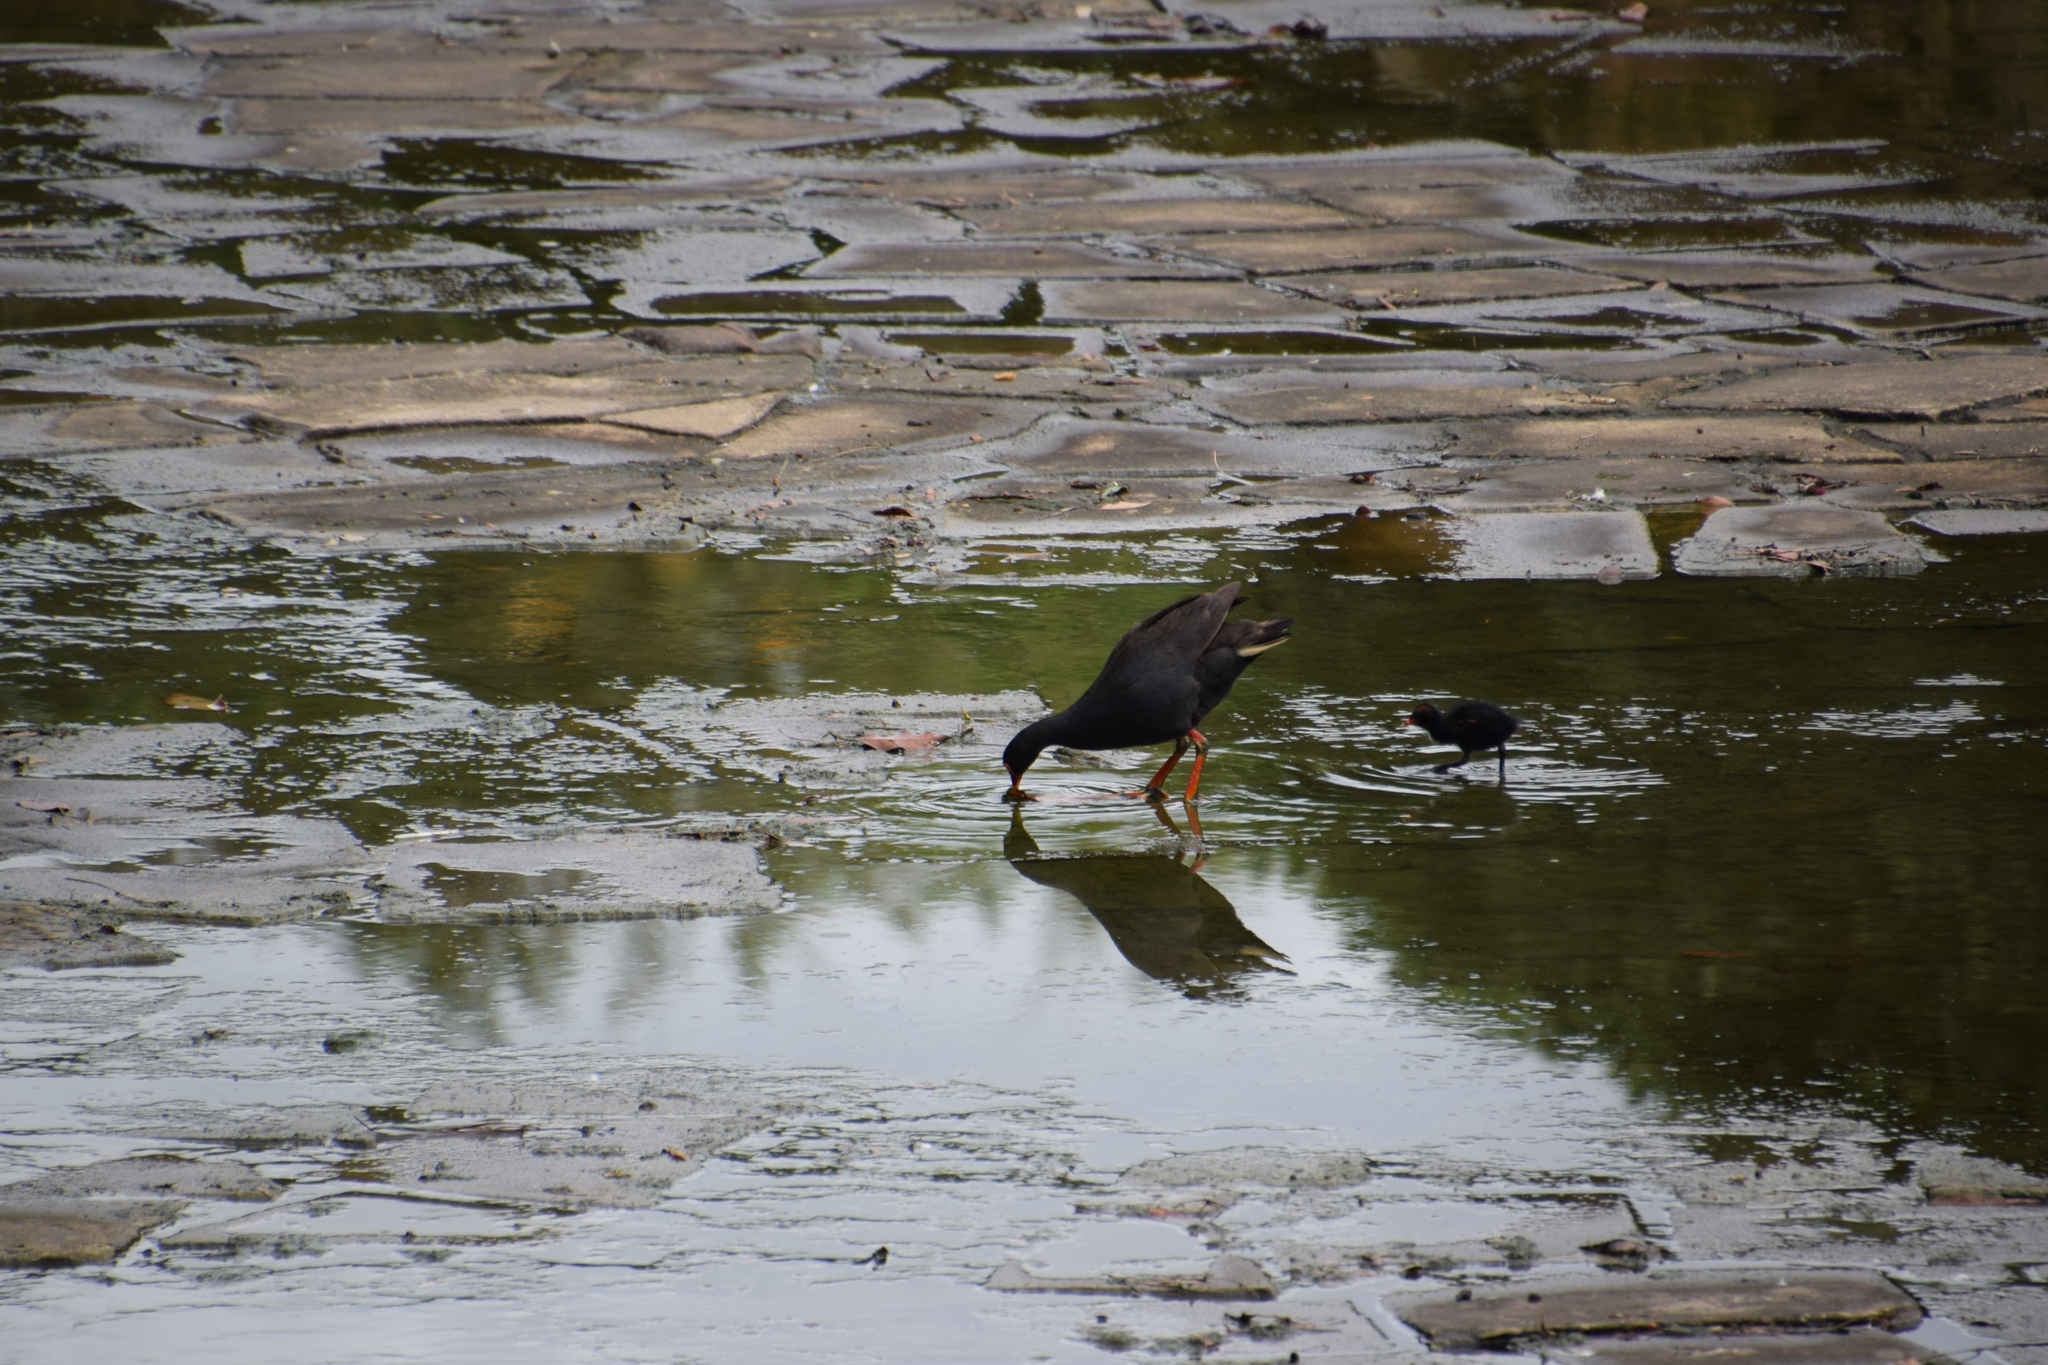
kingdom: Animalia
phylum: Chordata
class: Aves
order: Gruiformes
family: Rallidae
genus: Gallinula
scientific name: Gallinula tenebrosa
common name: Dusky moorhen
